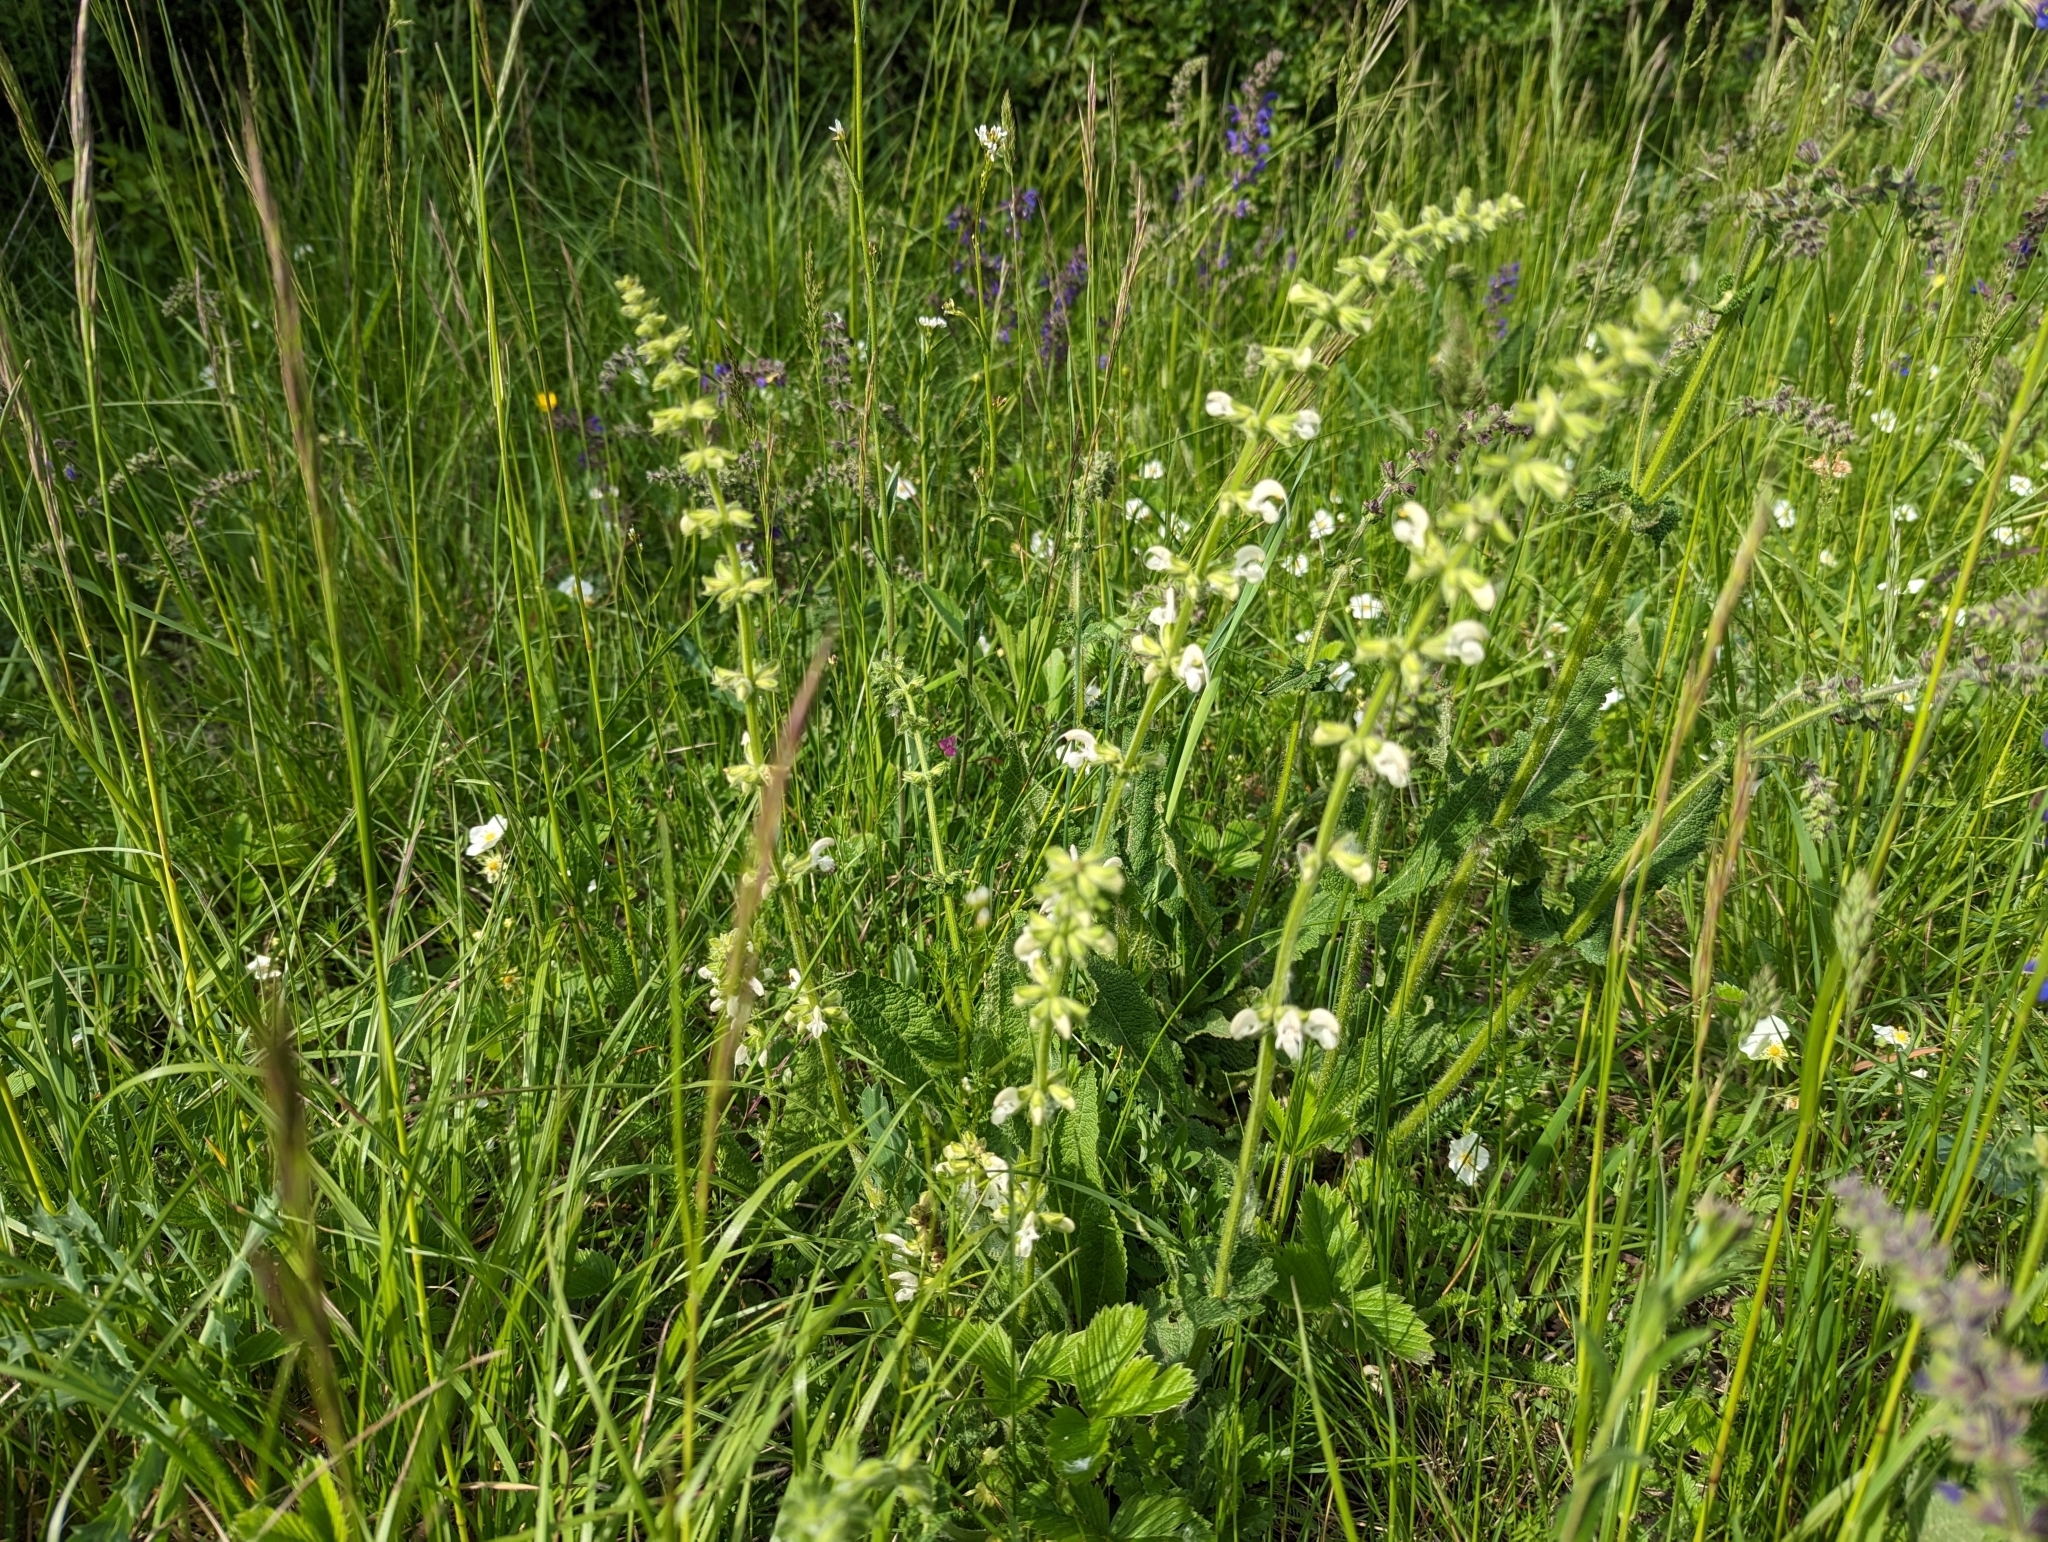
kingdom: Plantae
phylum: Tracheophyta
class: Magnoliopsida
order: Lamiales
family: Lamiaceae
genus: Salvia
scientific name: Salvia pratensis
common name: Meadow sage
